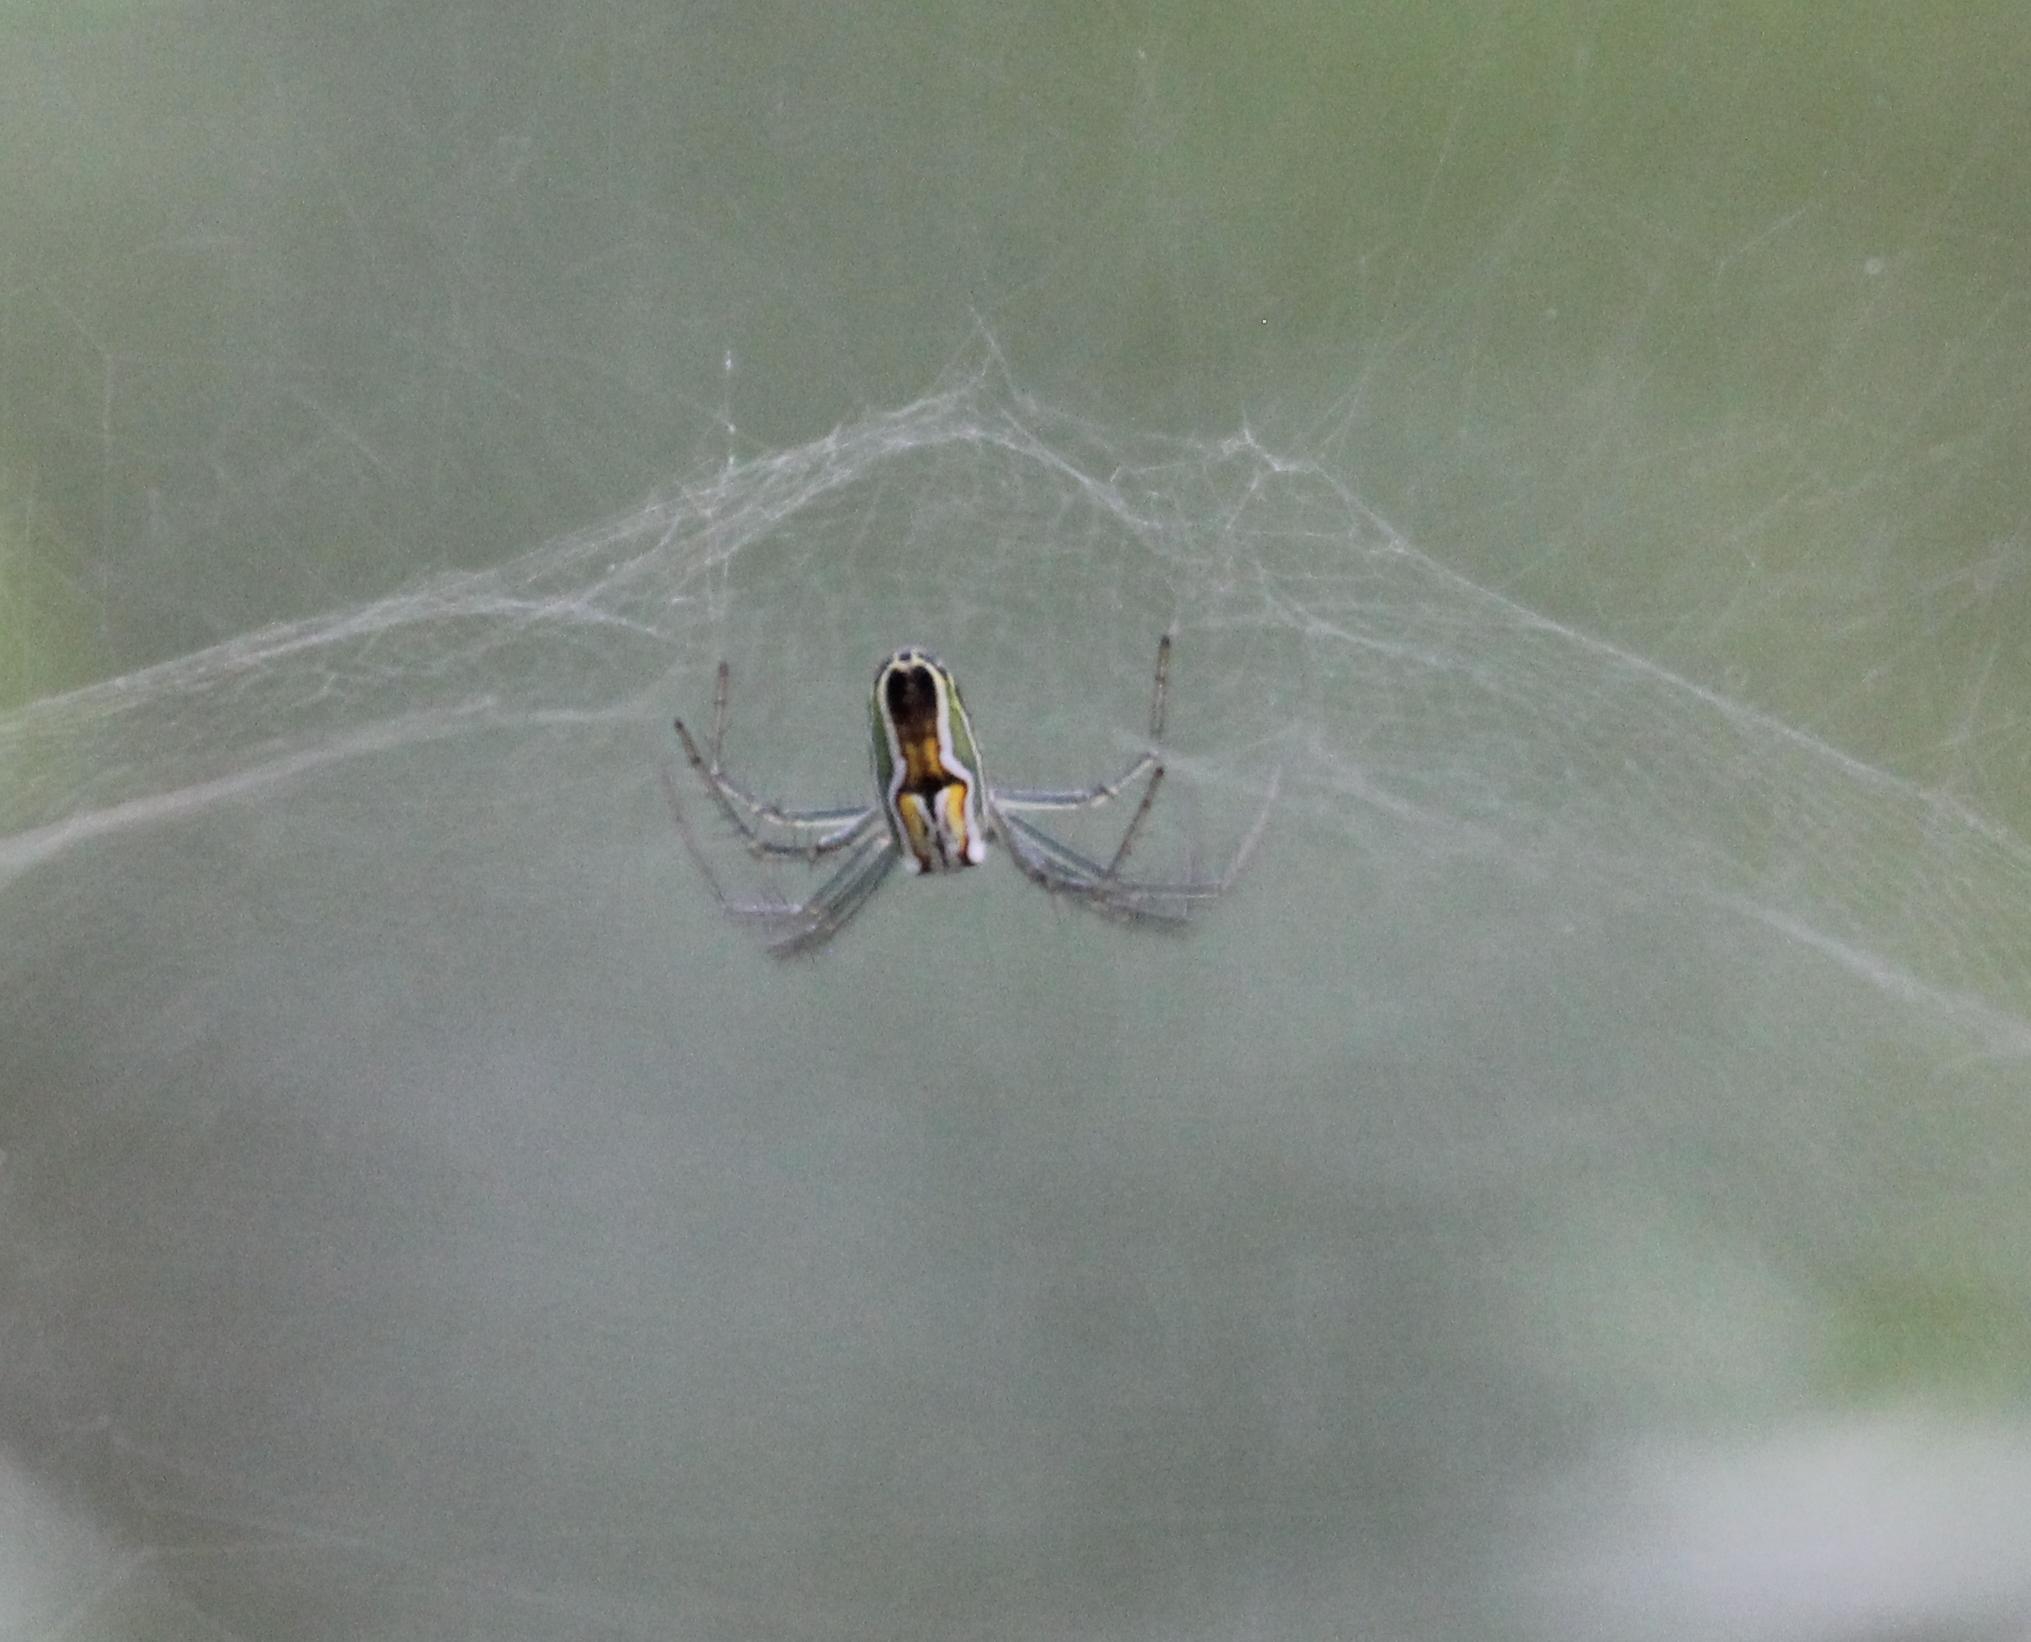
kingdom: Animalia
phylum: Arthropoda
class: Arachnida
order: Araneae
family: Araneidae
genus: Mecynogea
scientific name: Mecynogea lemniscata
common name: Orb weavers
